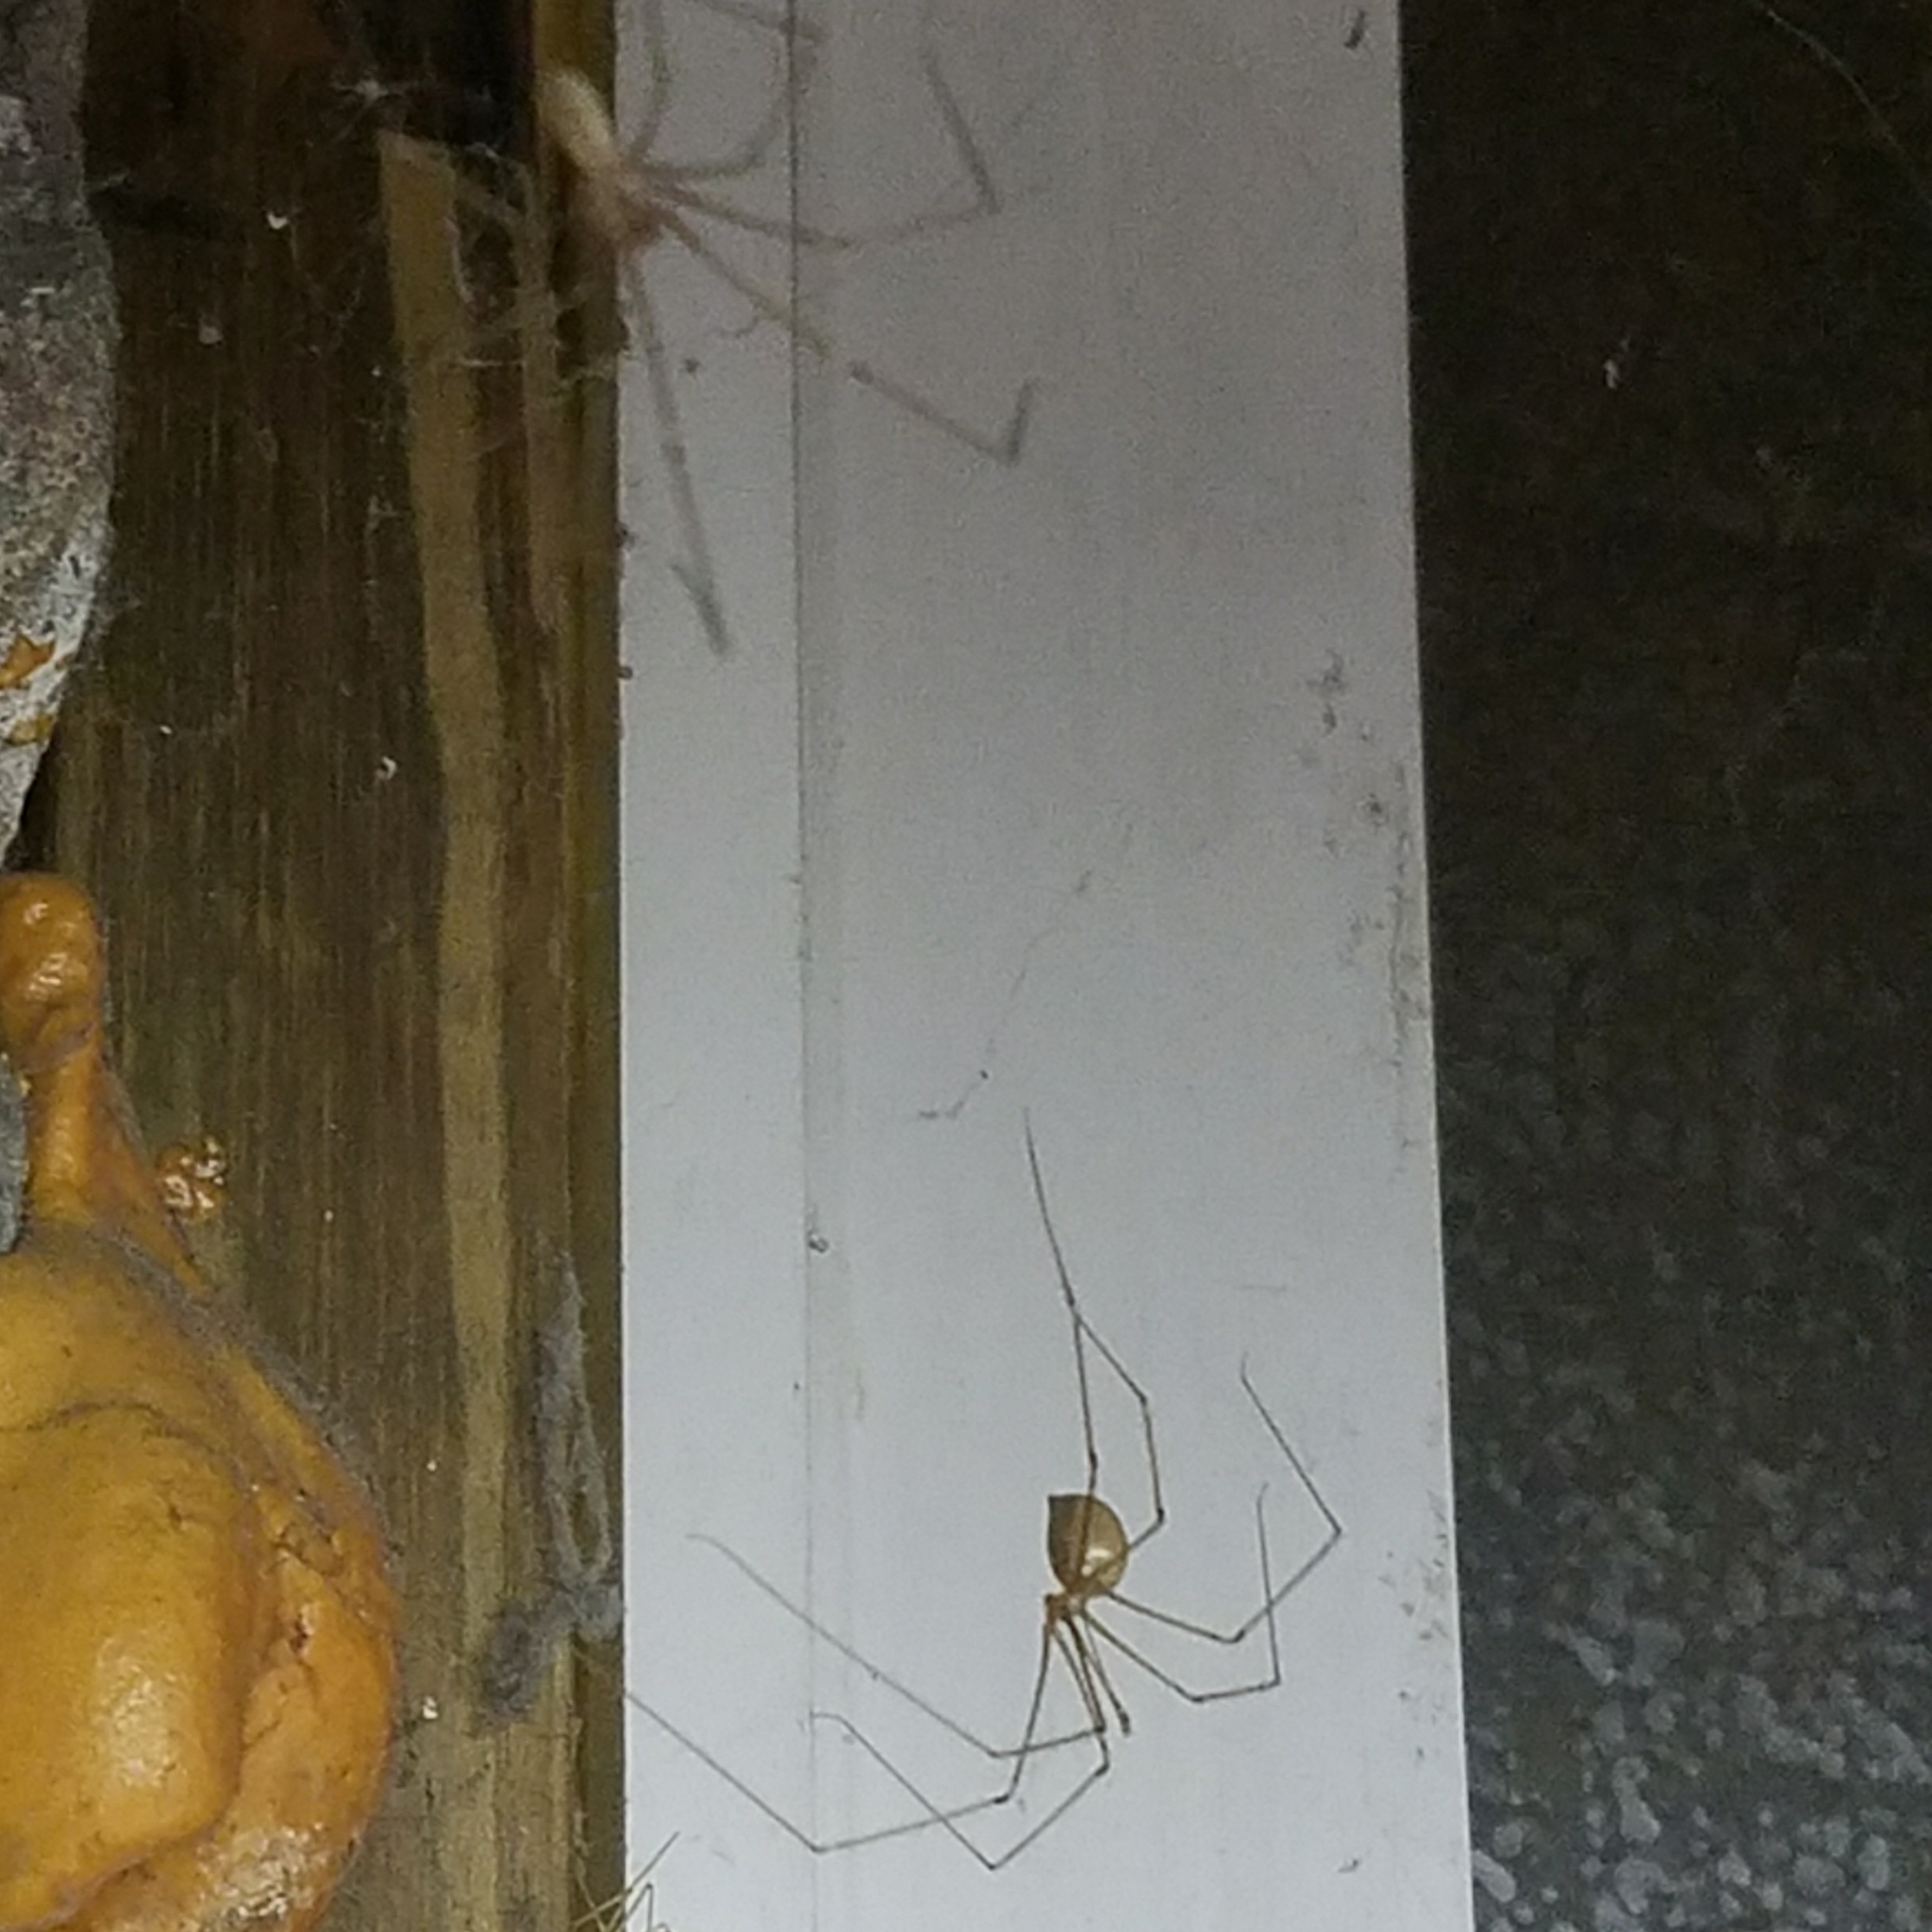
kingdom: Animalia
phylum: Arthropoda
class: Arachnida
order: Araneae
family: Pholcidae
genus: Pholcus
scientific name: Pholcus phalangioides
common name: Longbodied cellar spider
